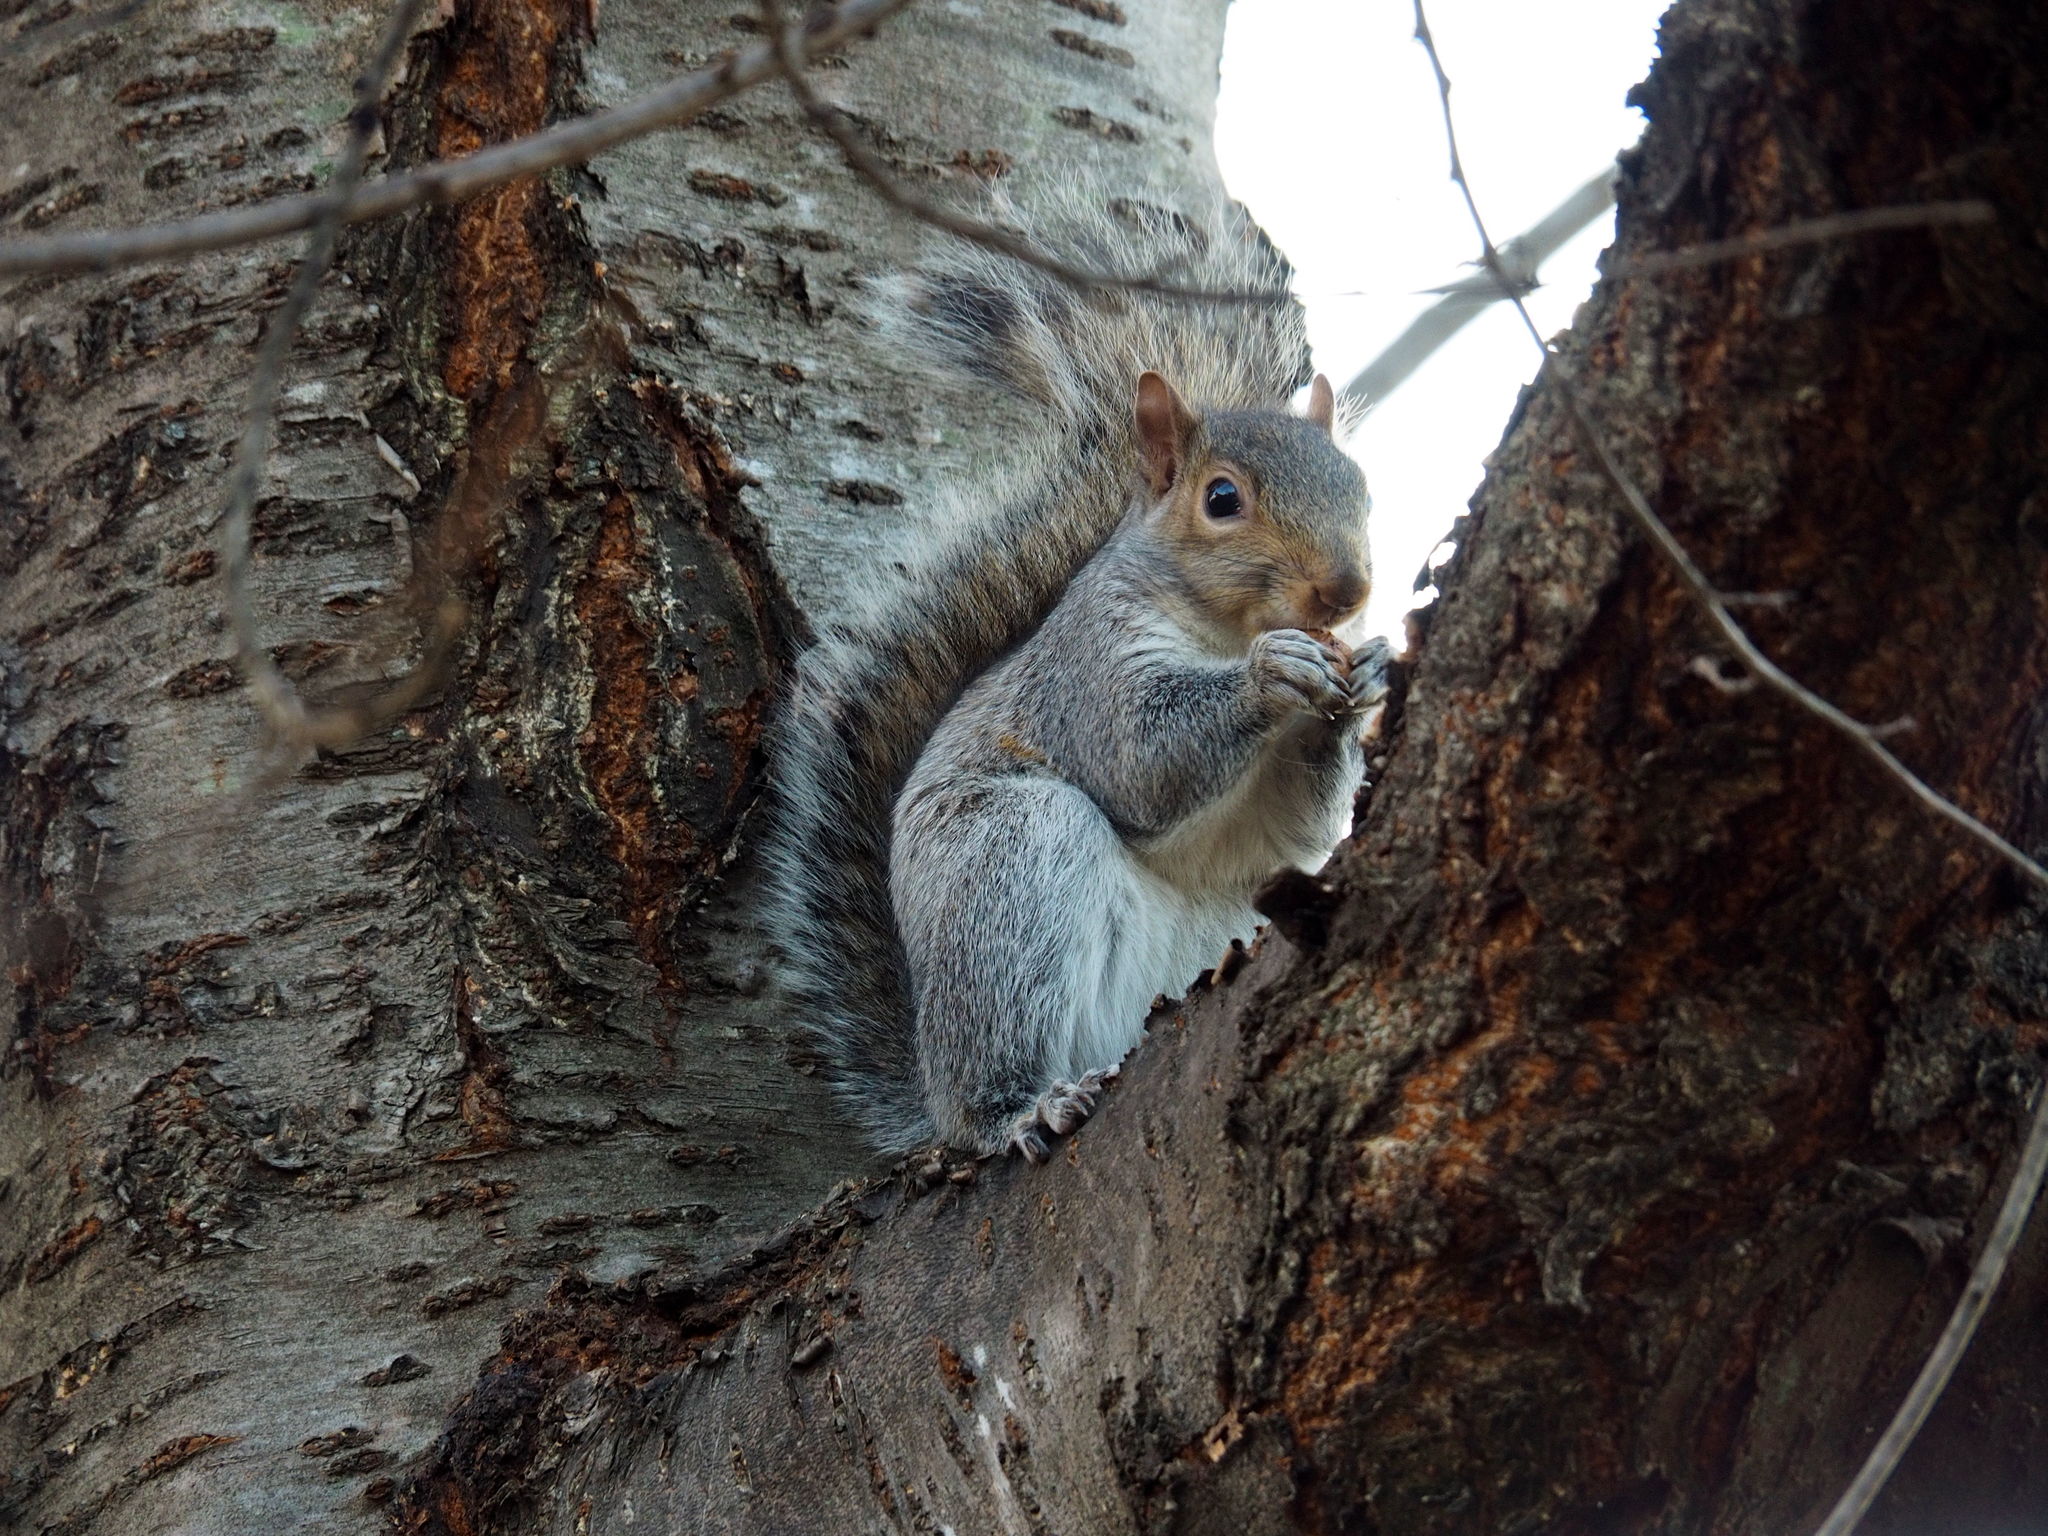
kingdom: Animalia
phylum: Chordata
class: Mammalia
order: Rodentia
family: Sciuridae
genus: Sciurus
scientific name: Sciurus carolinensis
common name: Eastern gray squirrel
